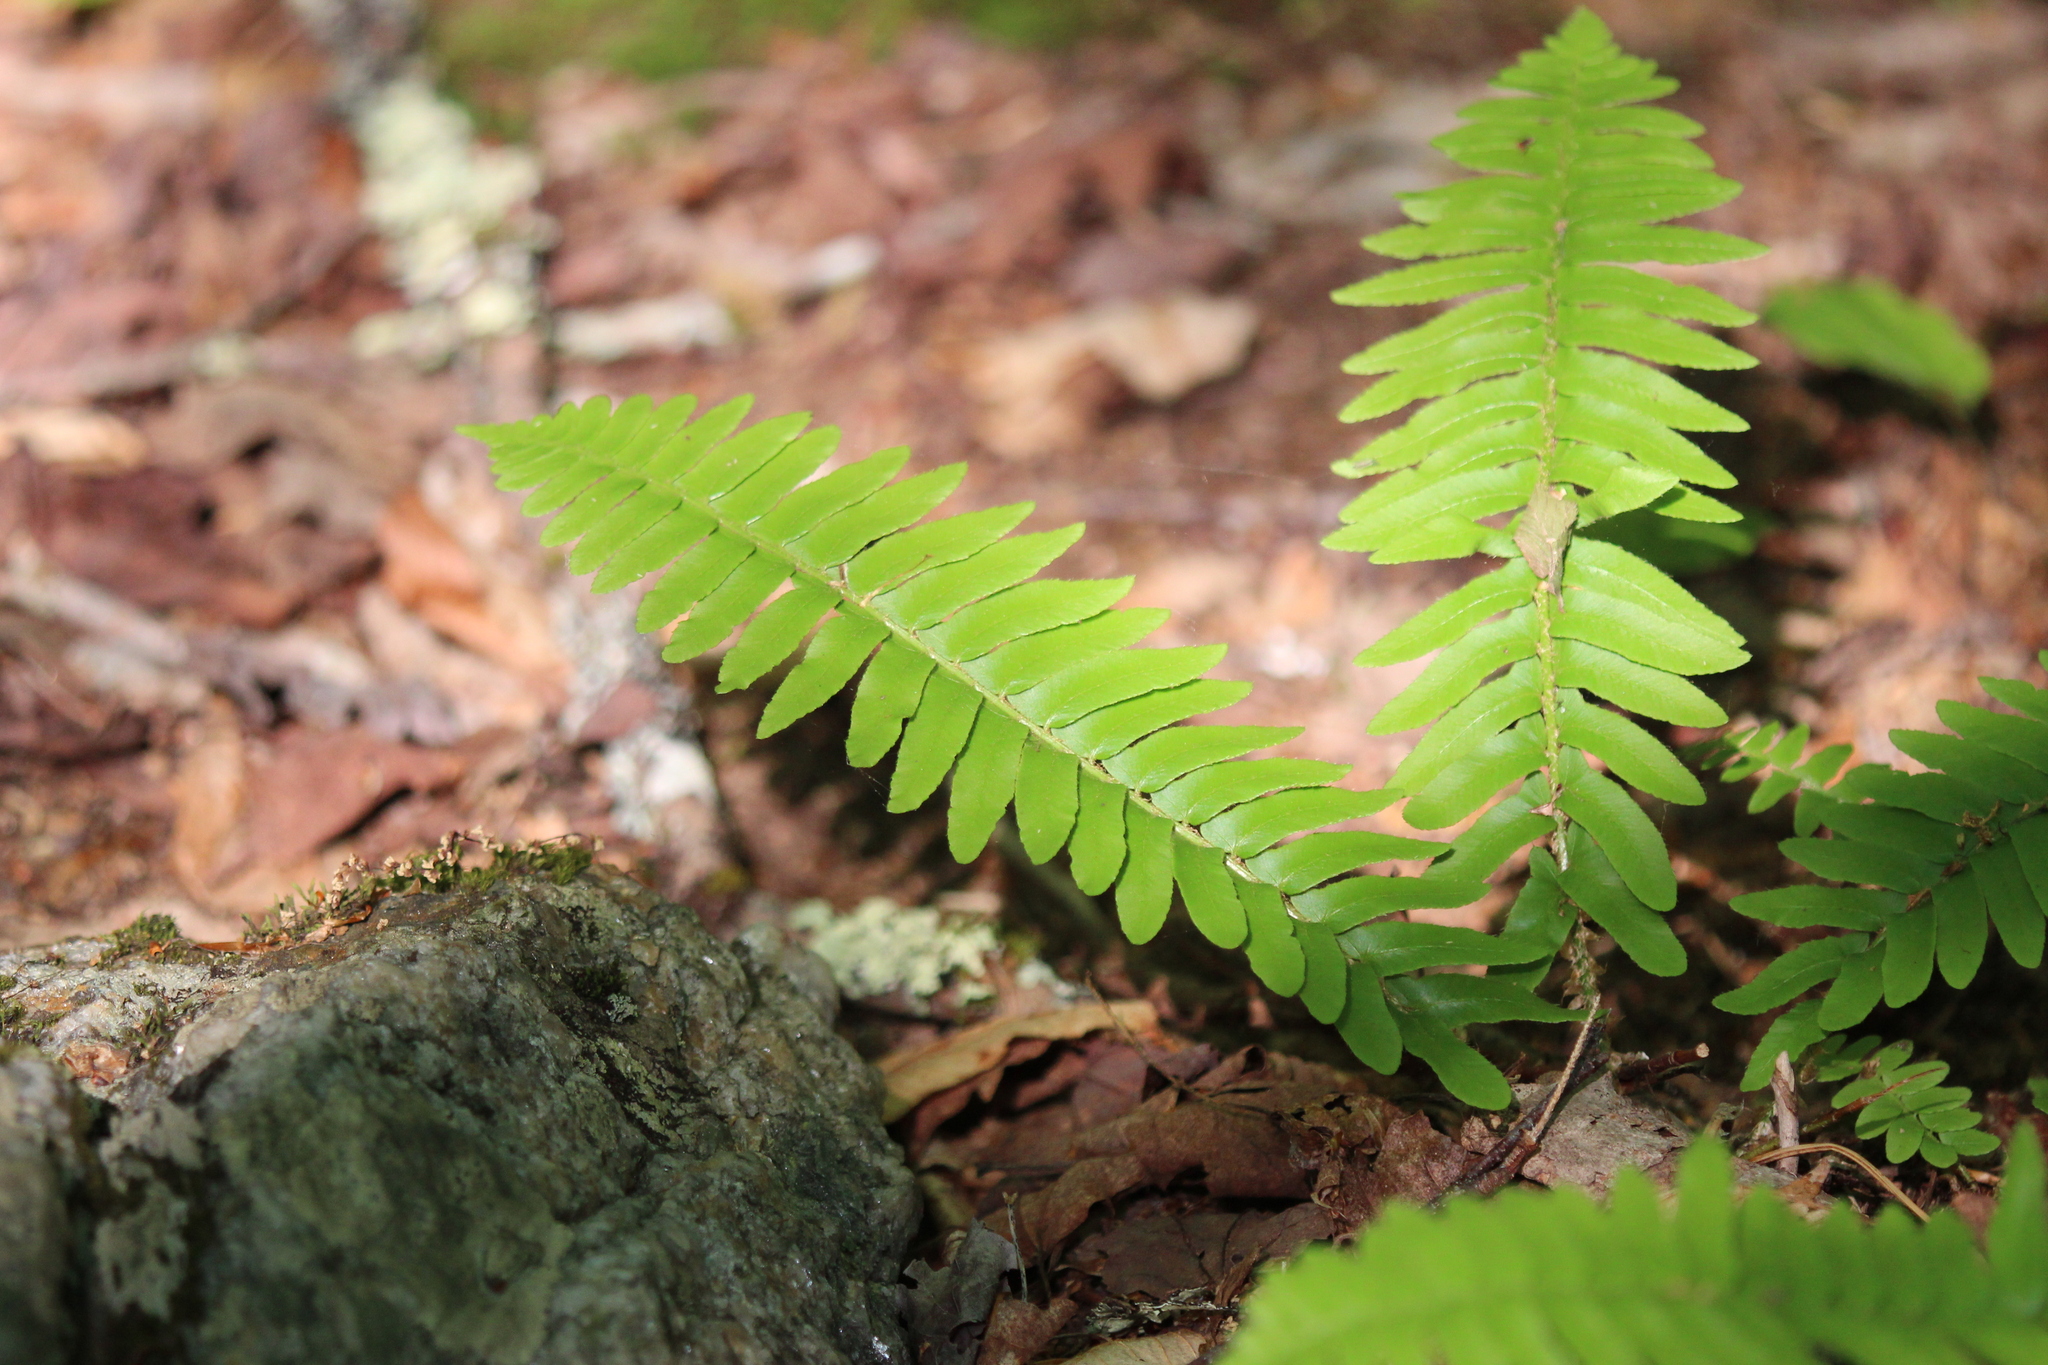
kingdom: Plantae
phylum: Tracheophyta
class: Polypodiopsida
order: Polypodiales
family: Dryopteridaceae
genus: Polystichum
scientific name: Polystichum acrostichoides
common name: Christmas fern
